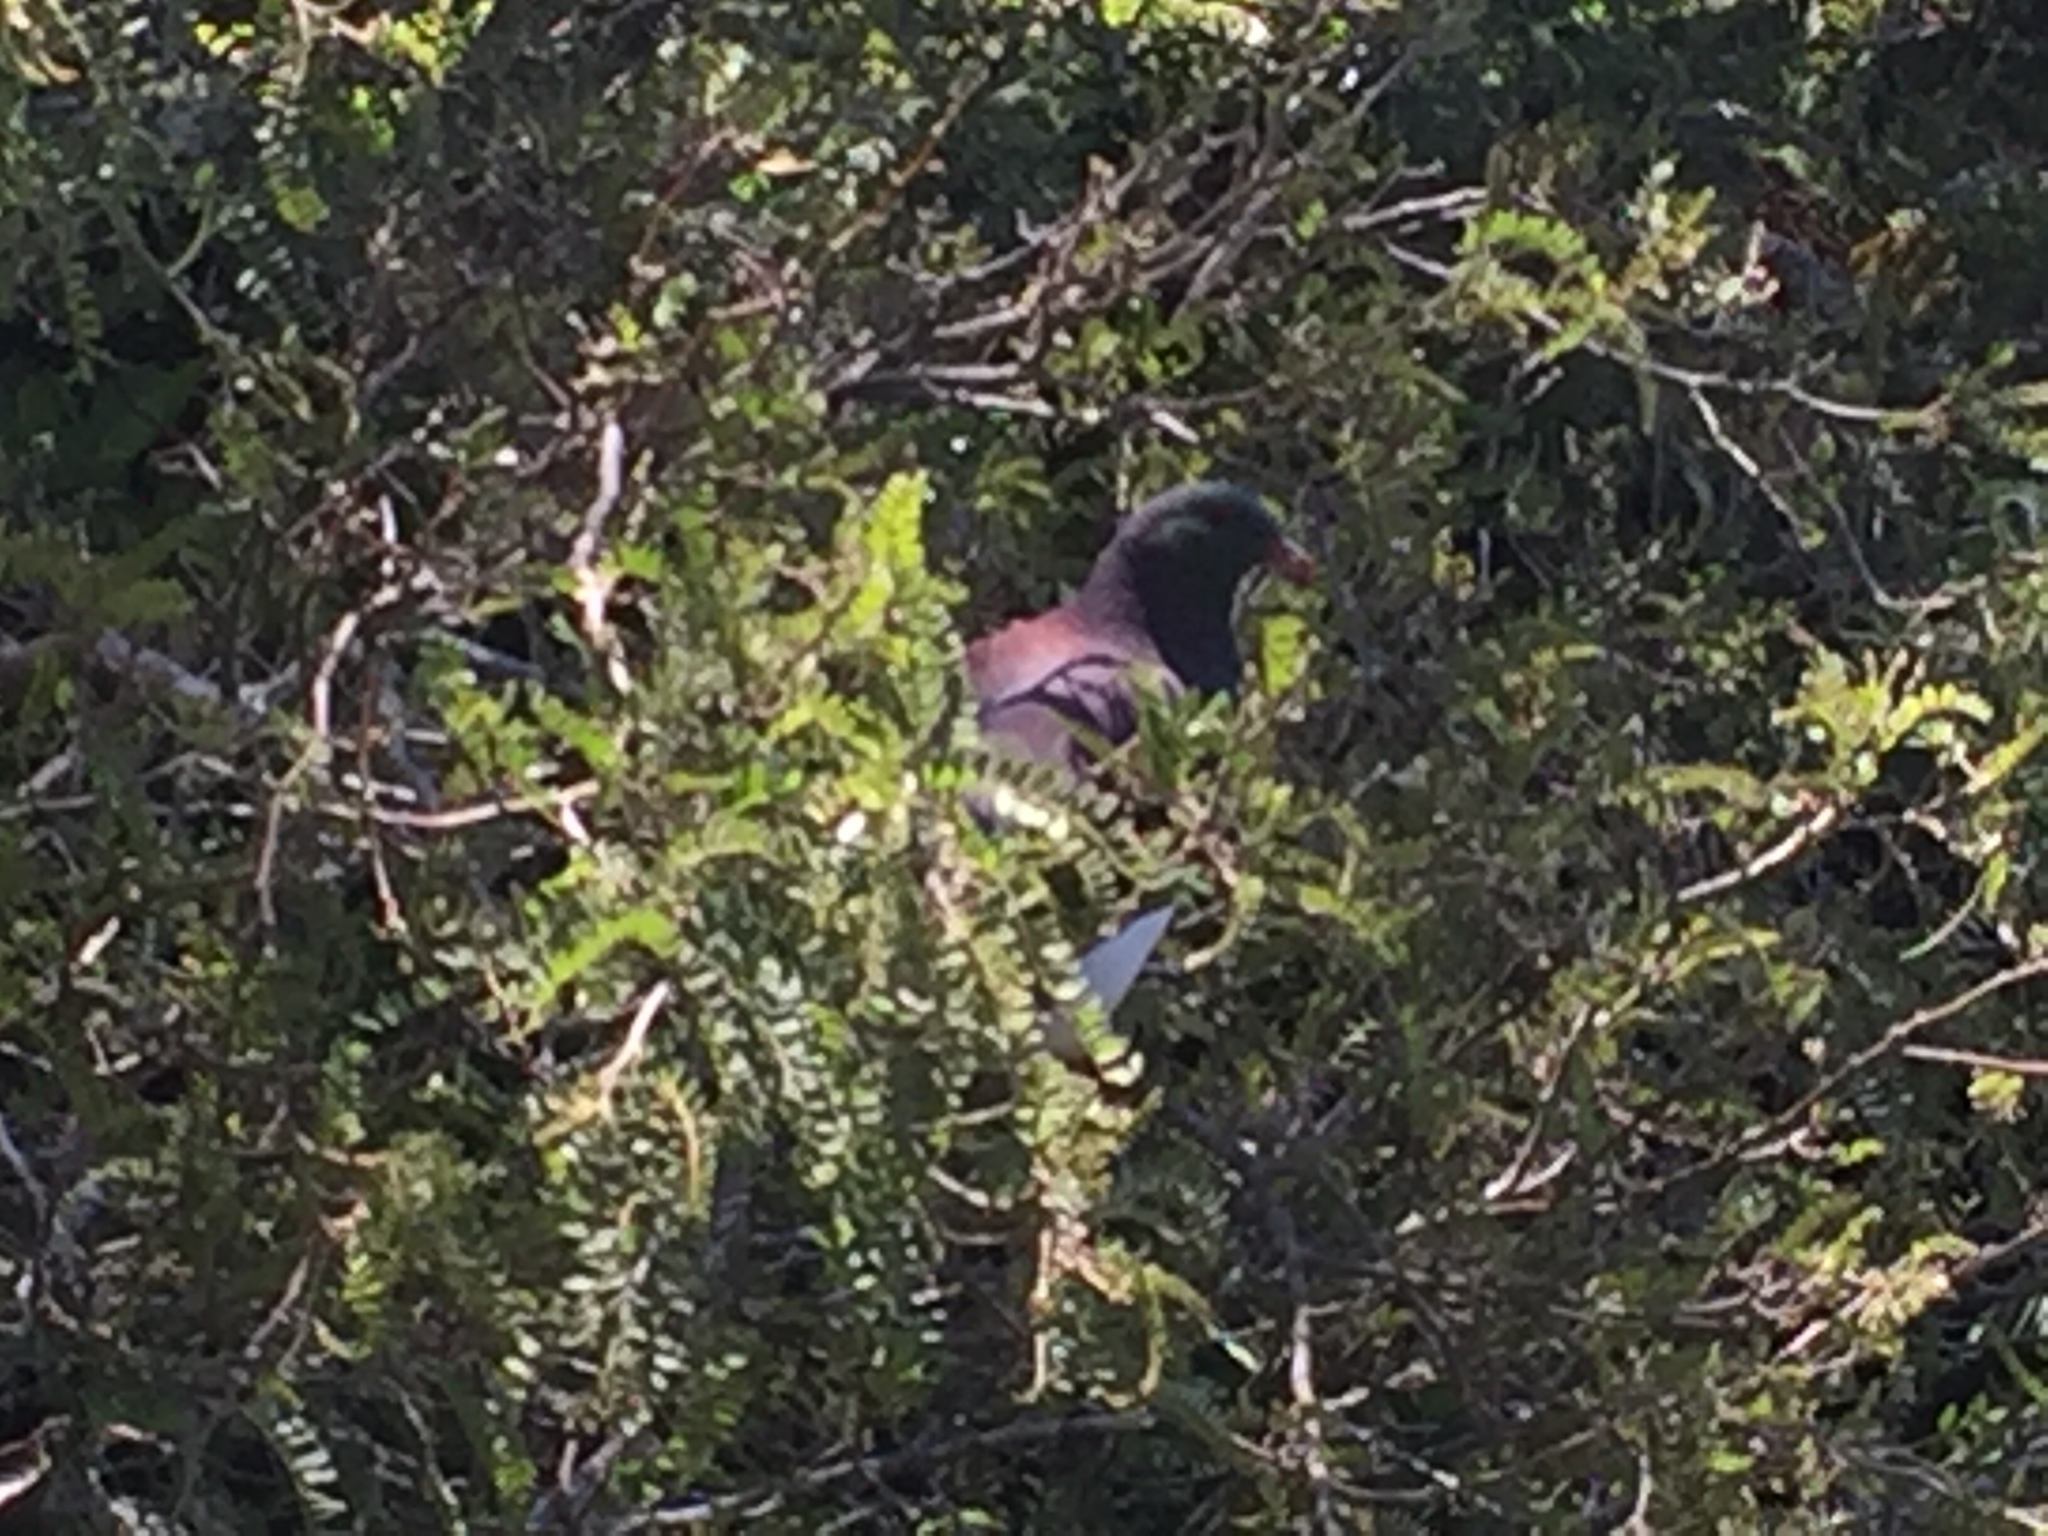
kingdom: Animalia
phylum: Chordata
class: Aves
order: Columbiformes
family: Columbidae
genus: Hemiphaga
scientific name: Hemiphaga novaeseelandiae
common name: New zealand pigeon
